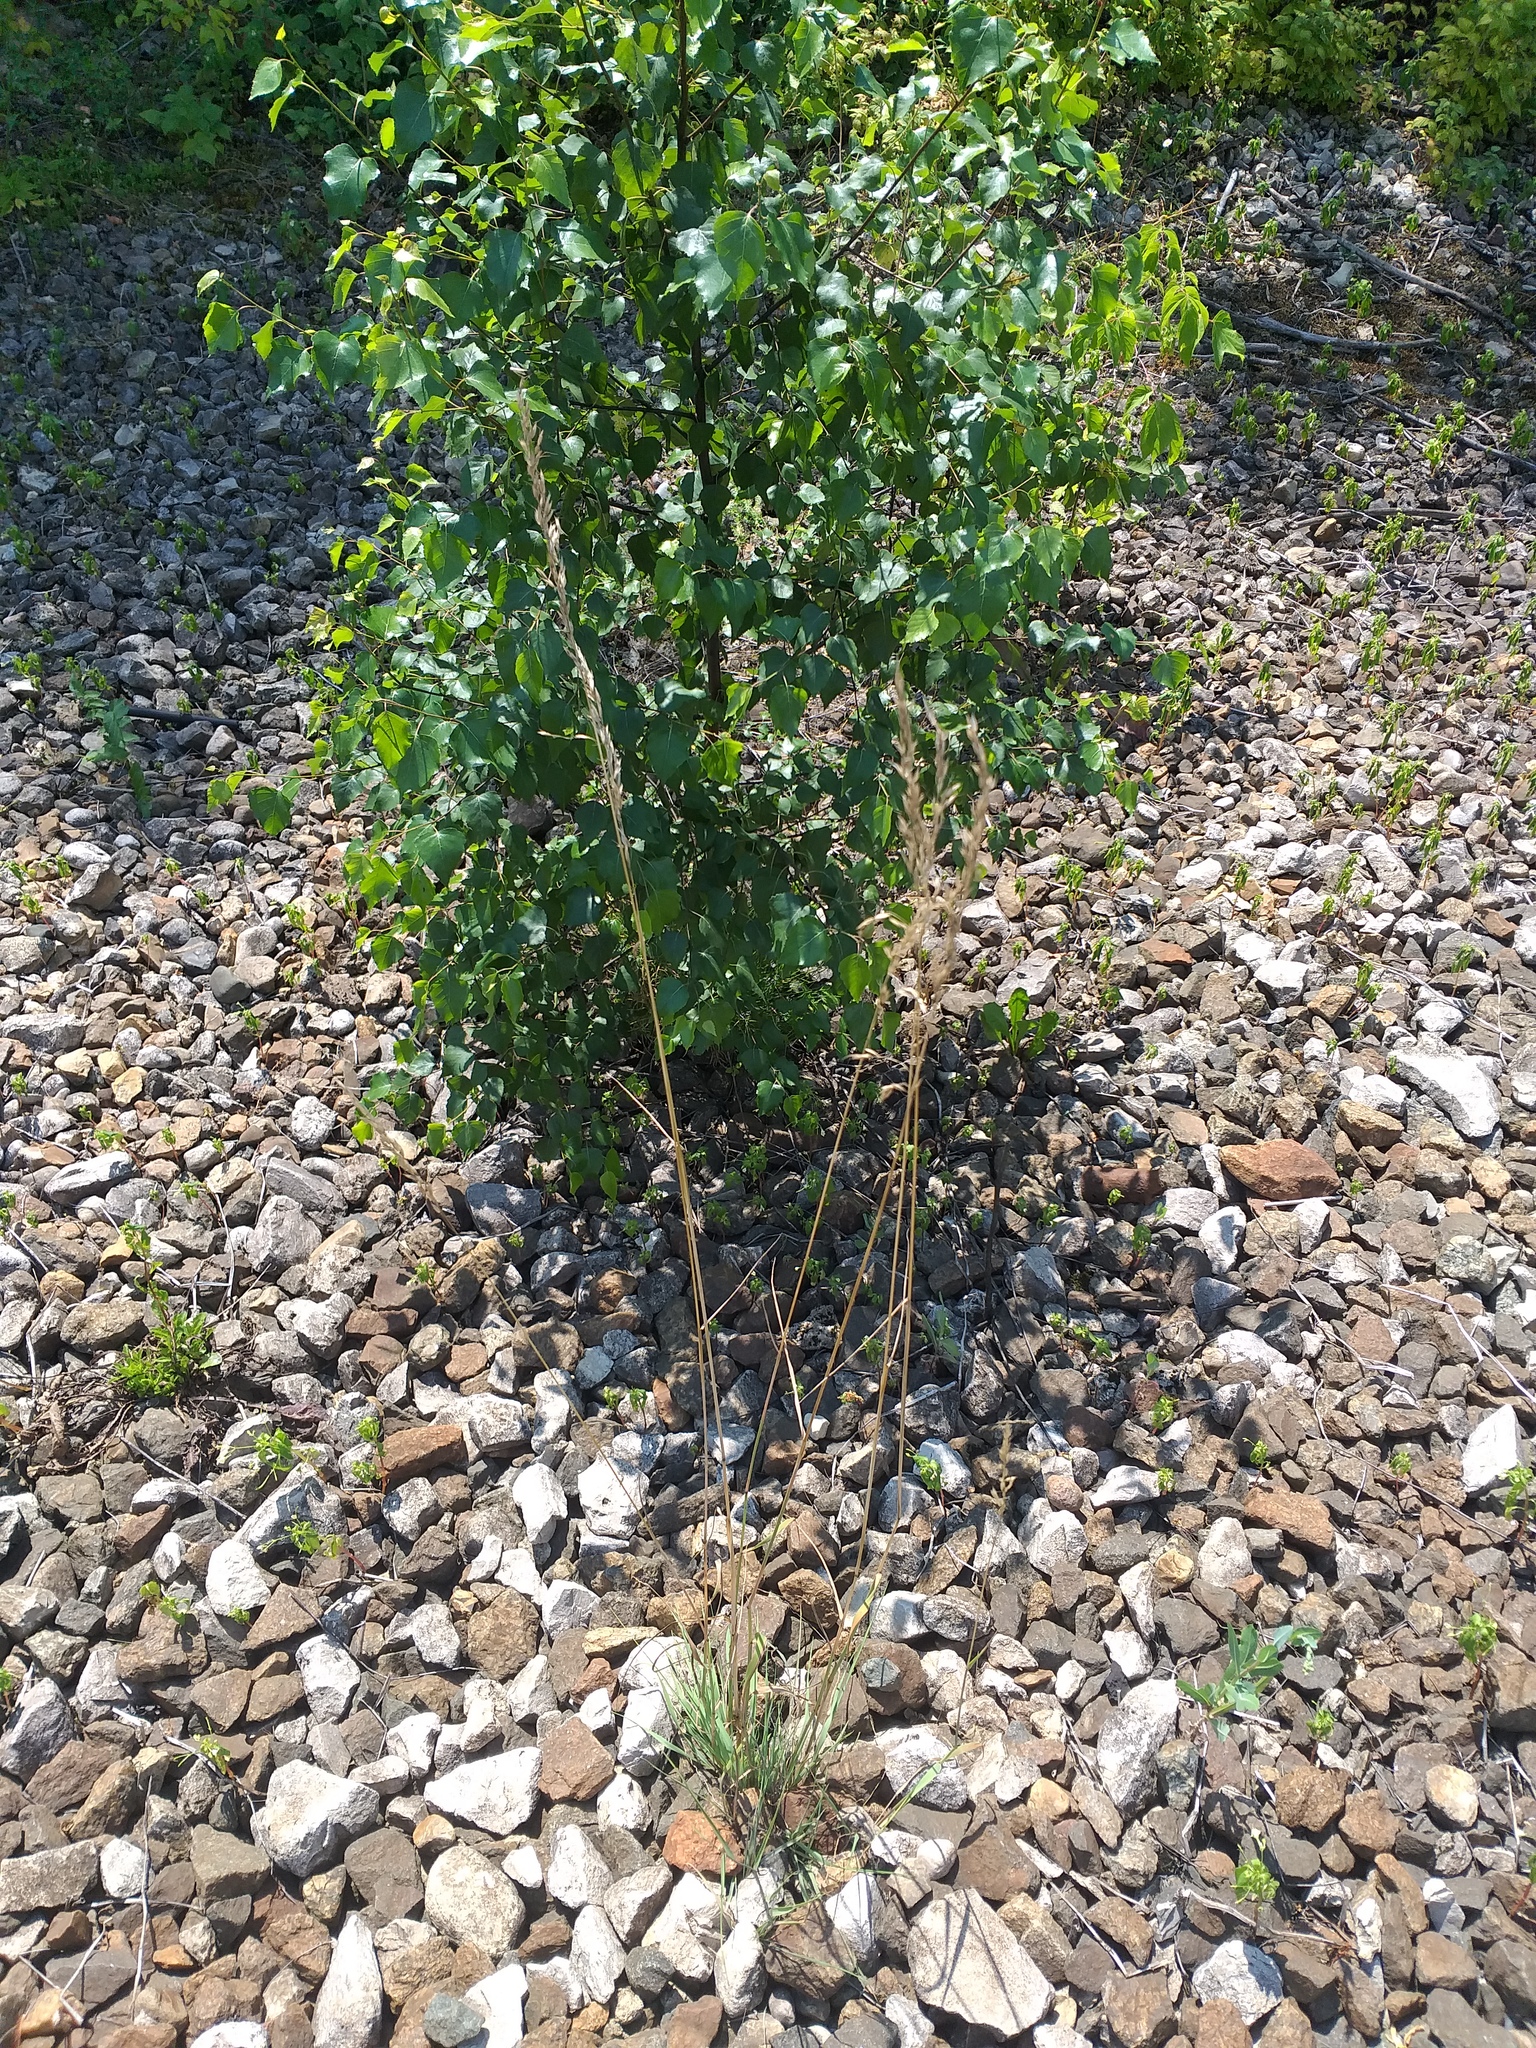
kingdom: Plantae
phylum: Tracheophyta
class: Liliopsida
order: Poales
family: Poaceae
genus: Arrhenatherum
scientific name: Arrhenatherum elatius
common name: Tall oatgrass
